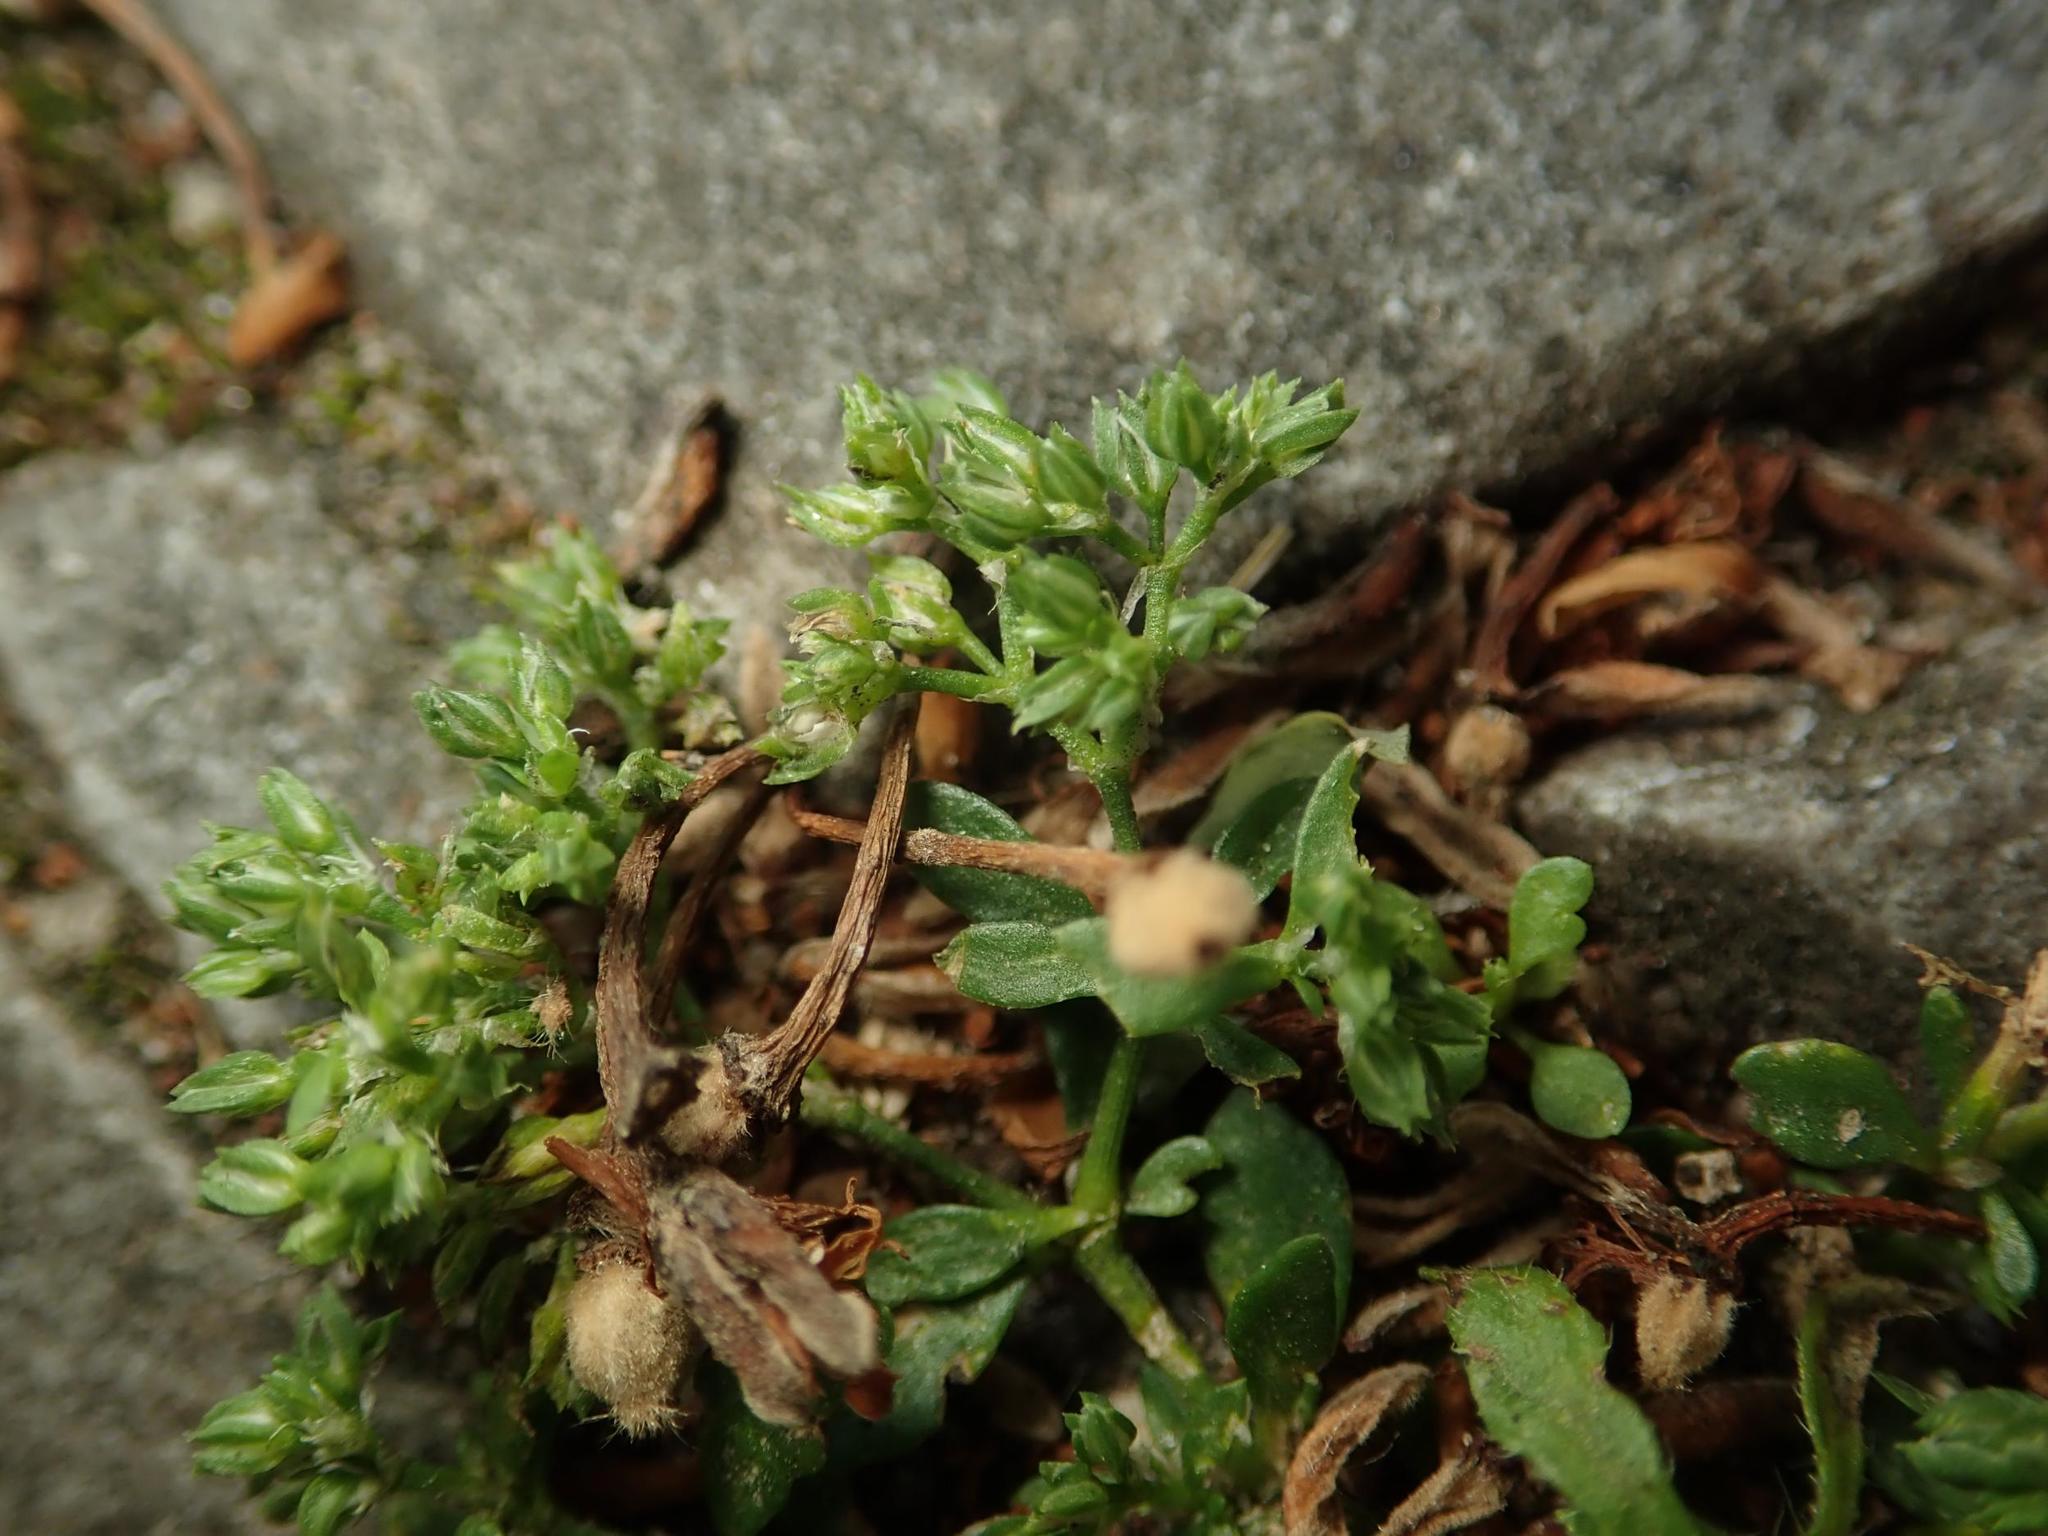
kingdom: Plantae
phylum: Tracheophyta
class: Magnoliopsida
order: Caryophyllales
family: Caryophyllaceae
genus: Polycarpon
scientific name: Polycarpon tetraphyllum
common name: Four-leaved all-seed
